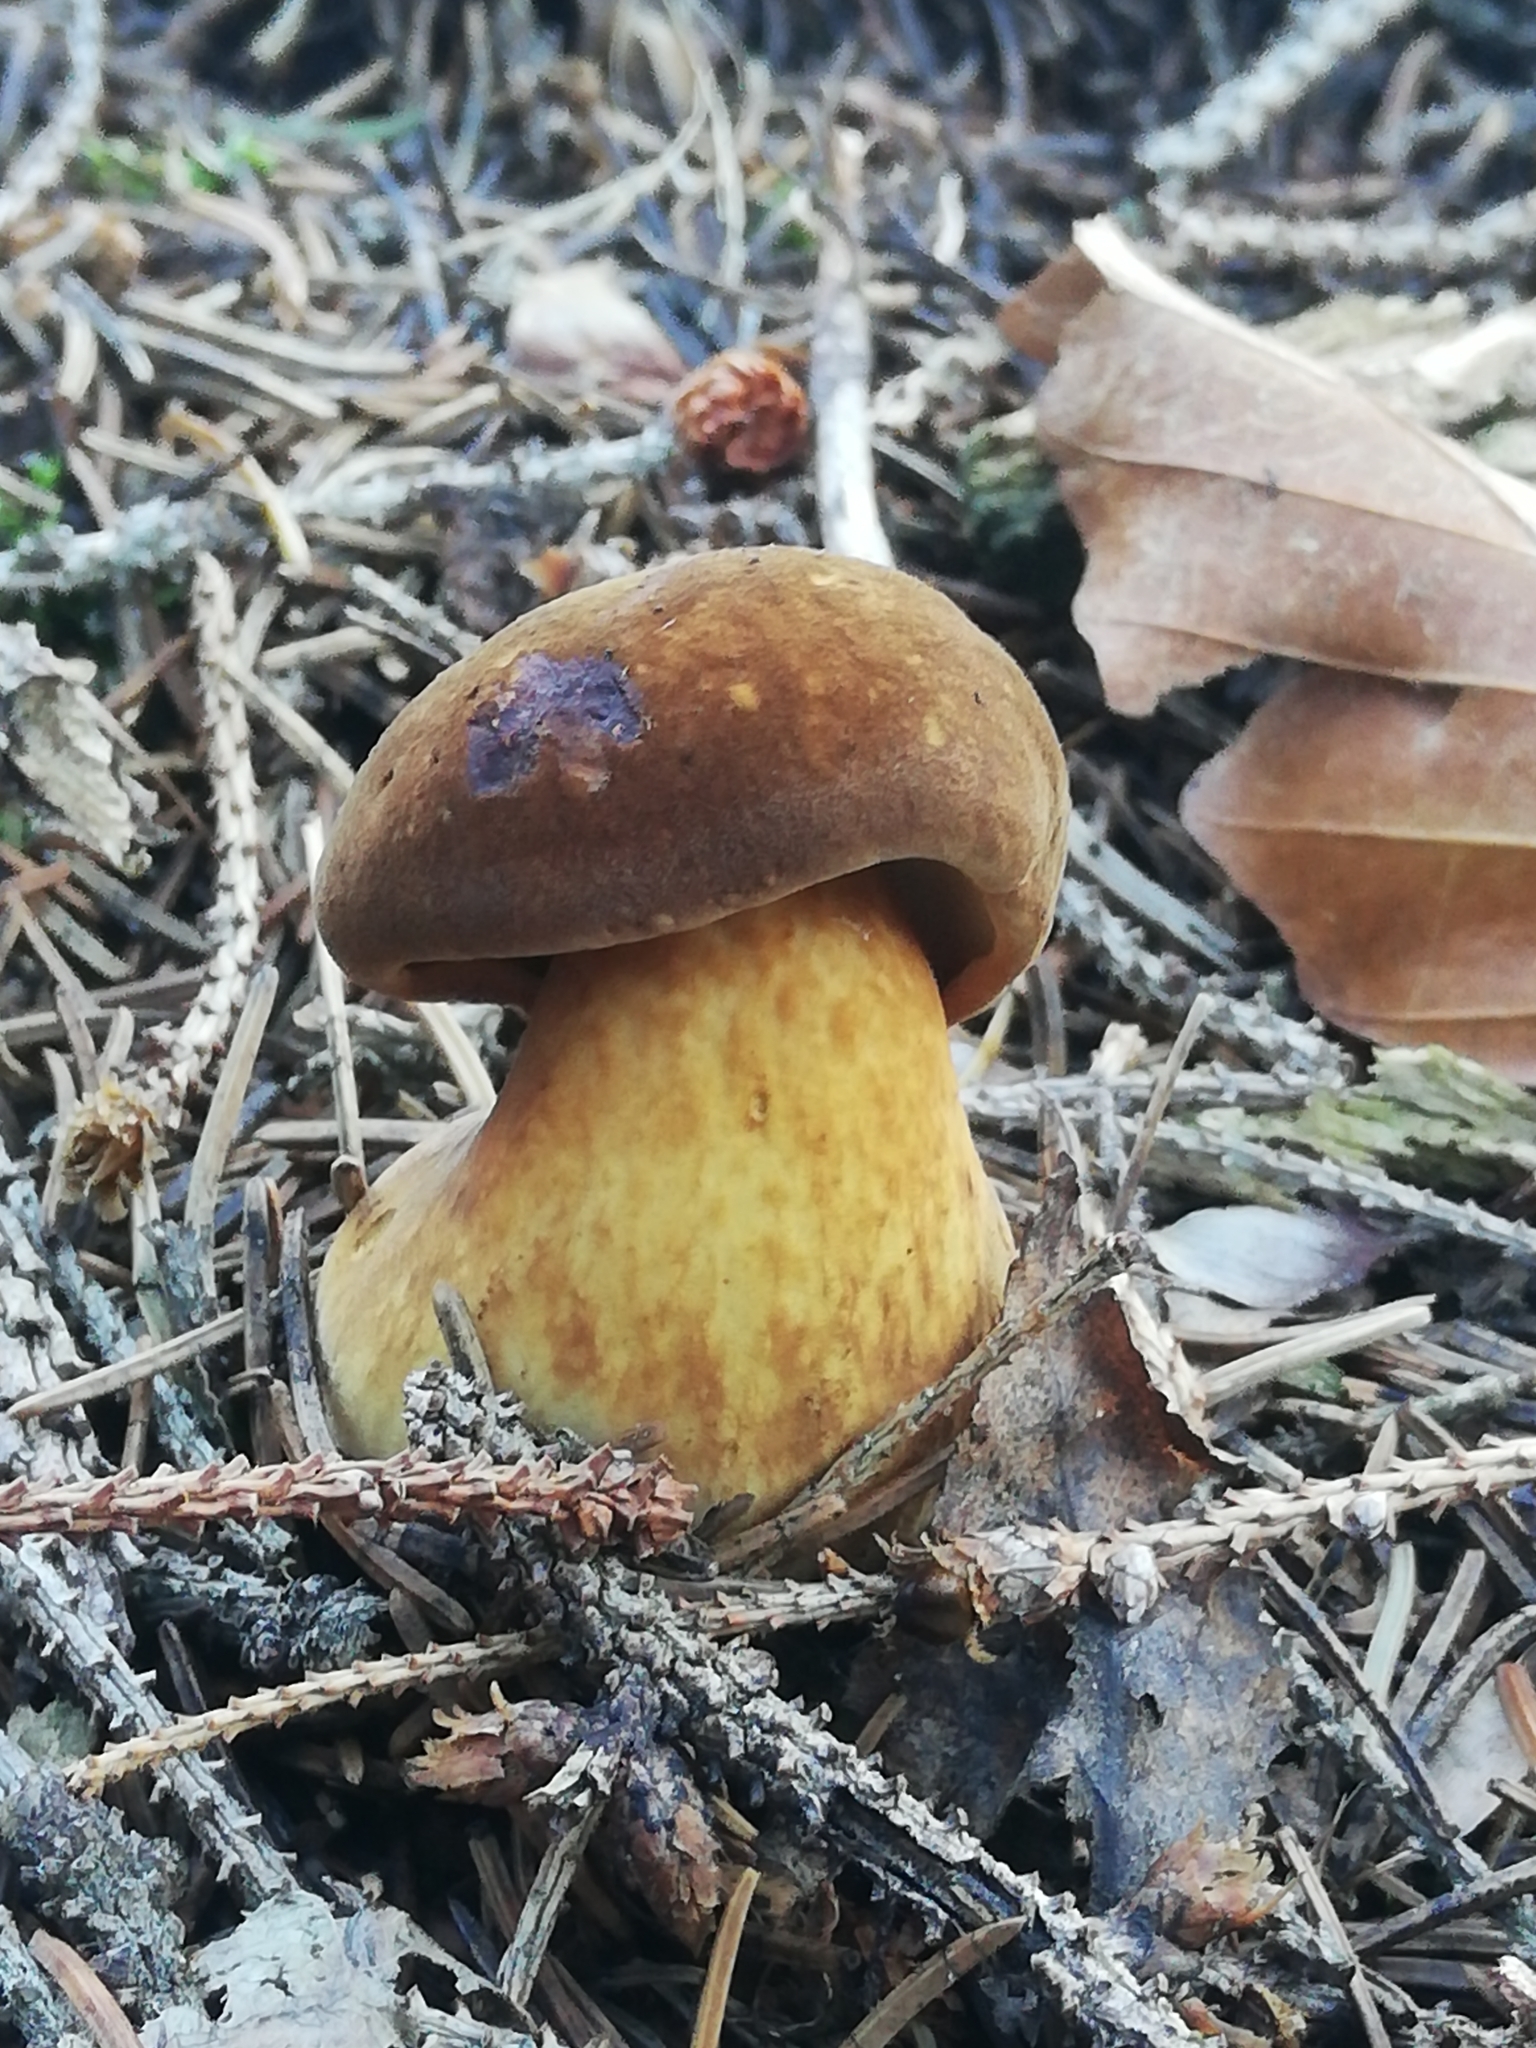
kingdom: Fungi
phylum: Basidiomycota
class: Agaricomycetes
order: Boletales
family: Boletaceae
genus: Imleria
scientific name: Imleria badia
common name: Bay bolete
